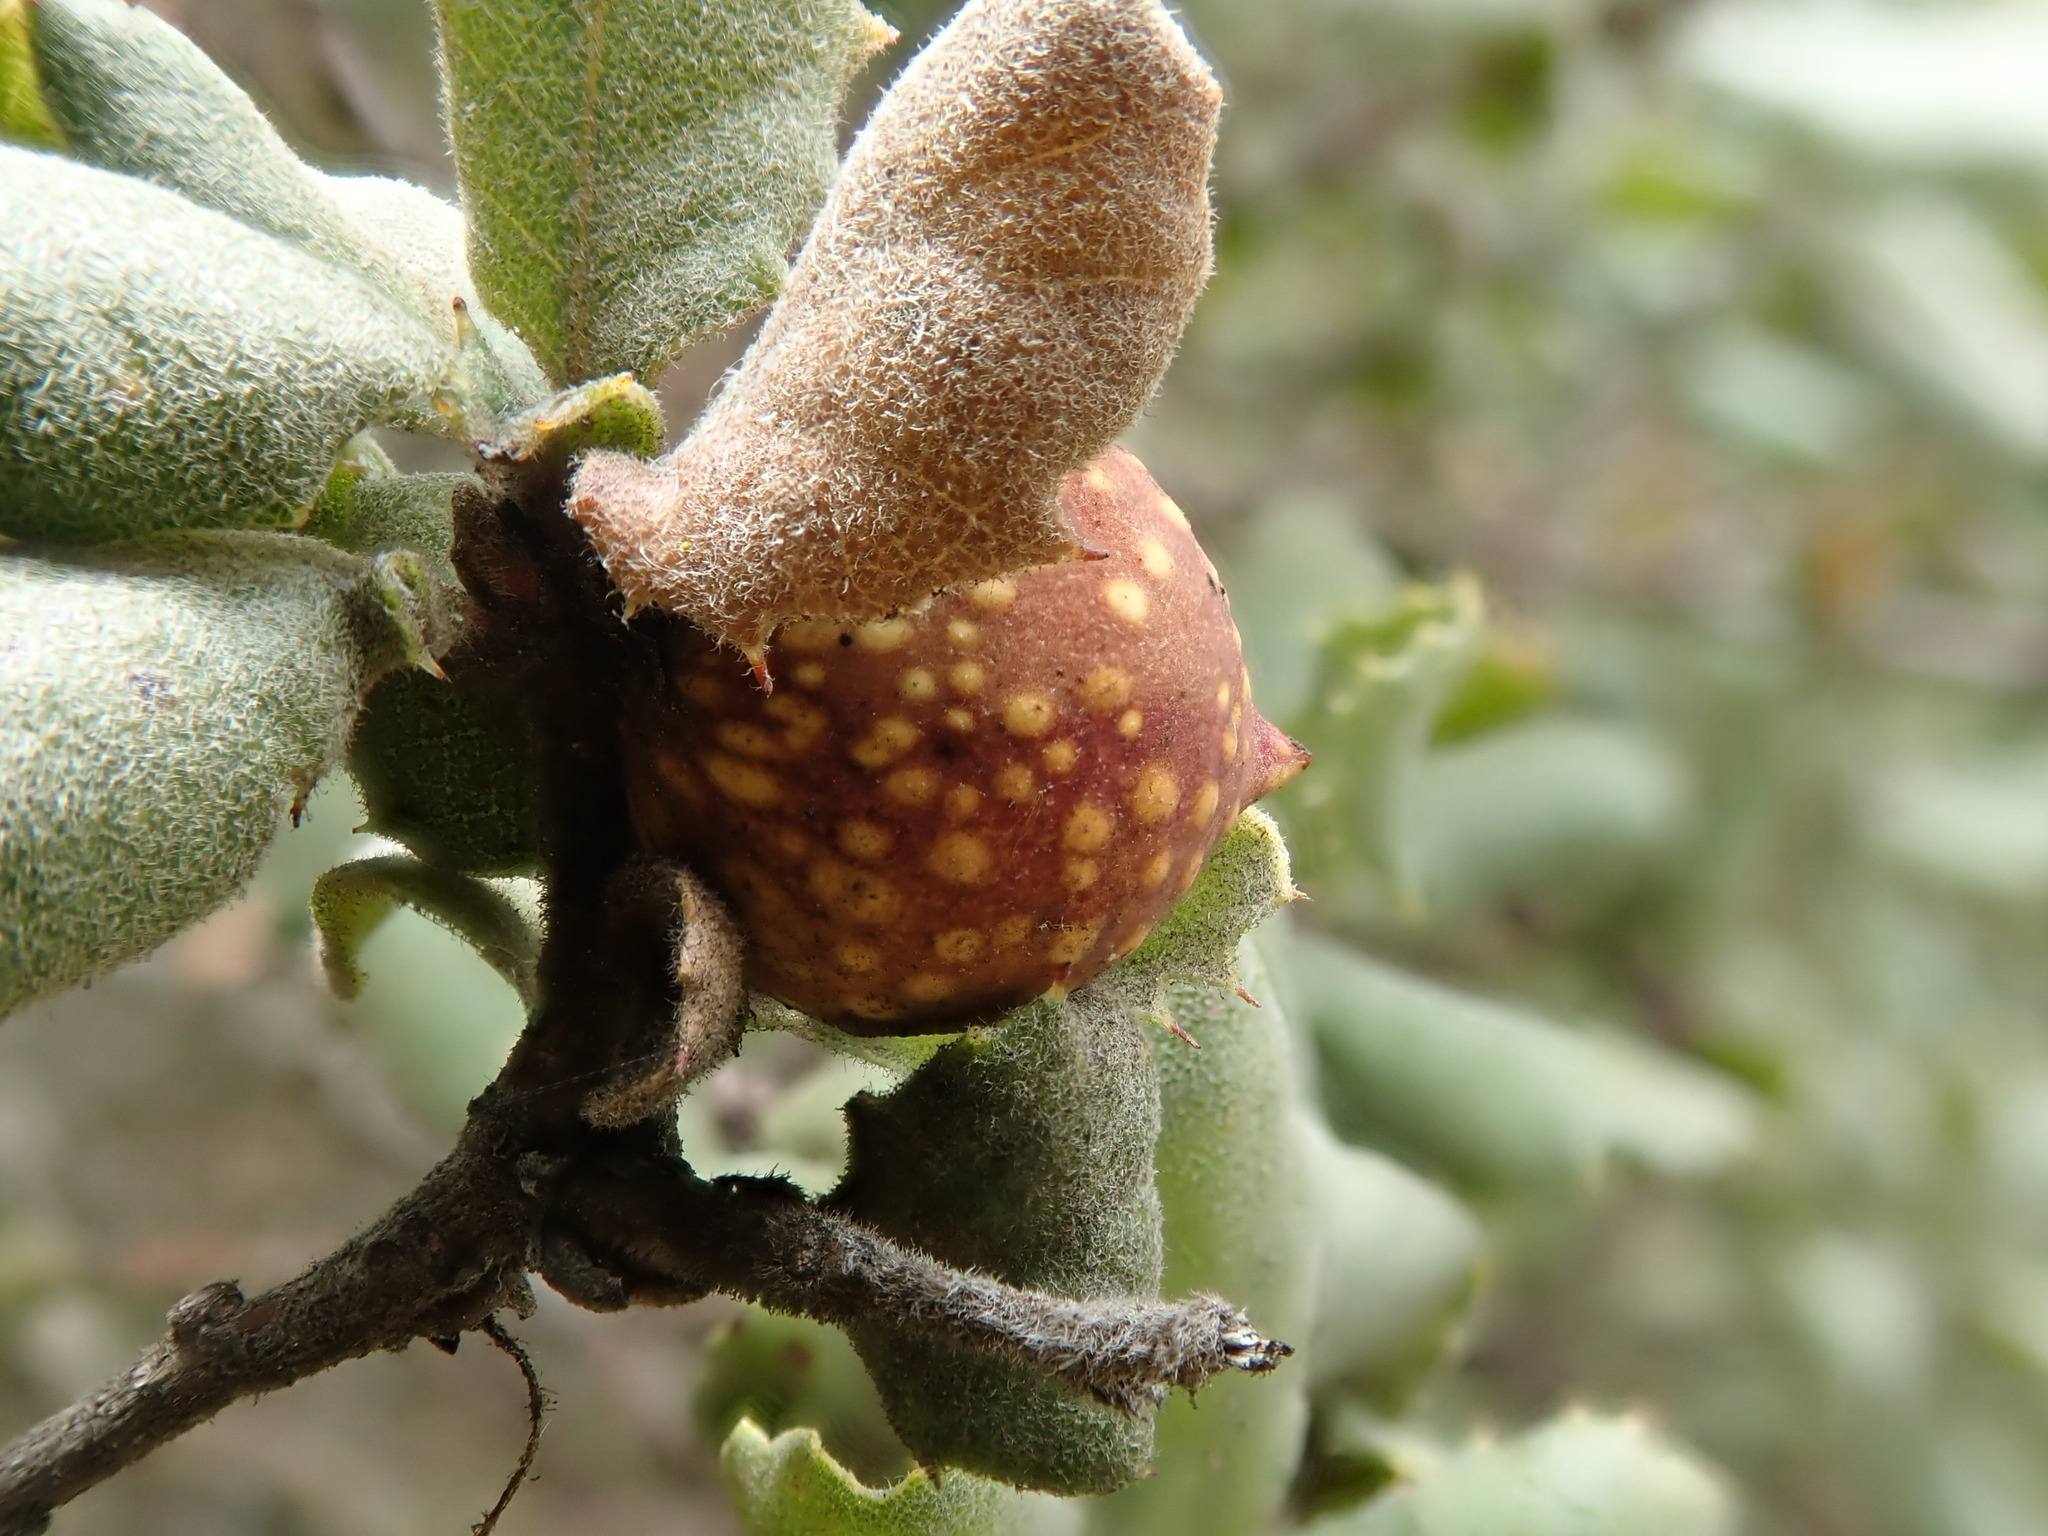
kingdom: Animalia
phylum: Arthropoda
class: Insecta
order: Hymenoptera
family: Cynipidae
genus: Burnettweldia
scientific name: Burnettweldia
